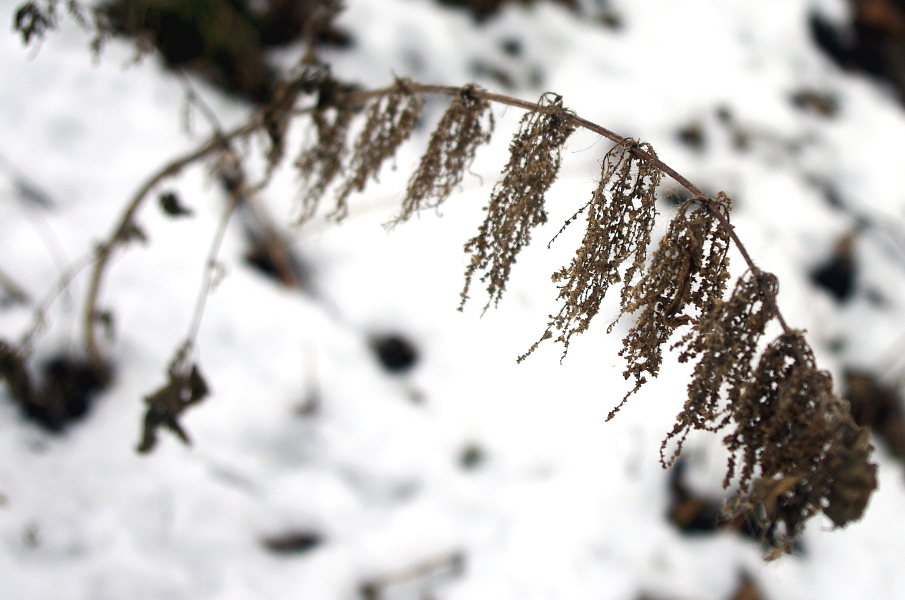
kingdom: Plantae
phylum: Tracheophyta
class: Magnoliopsida
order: Rosales
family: Urticaceae
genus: Urtica
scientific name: Urtica dioica
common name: Common nettle
